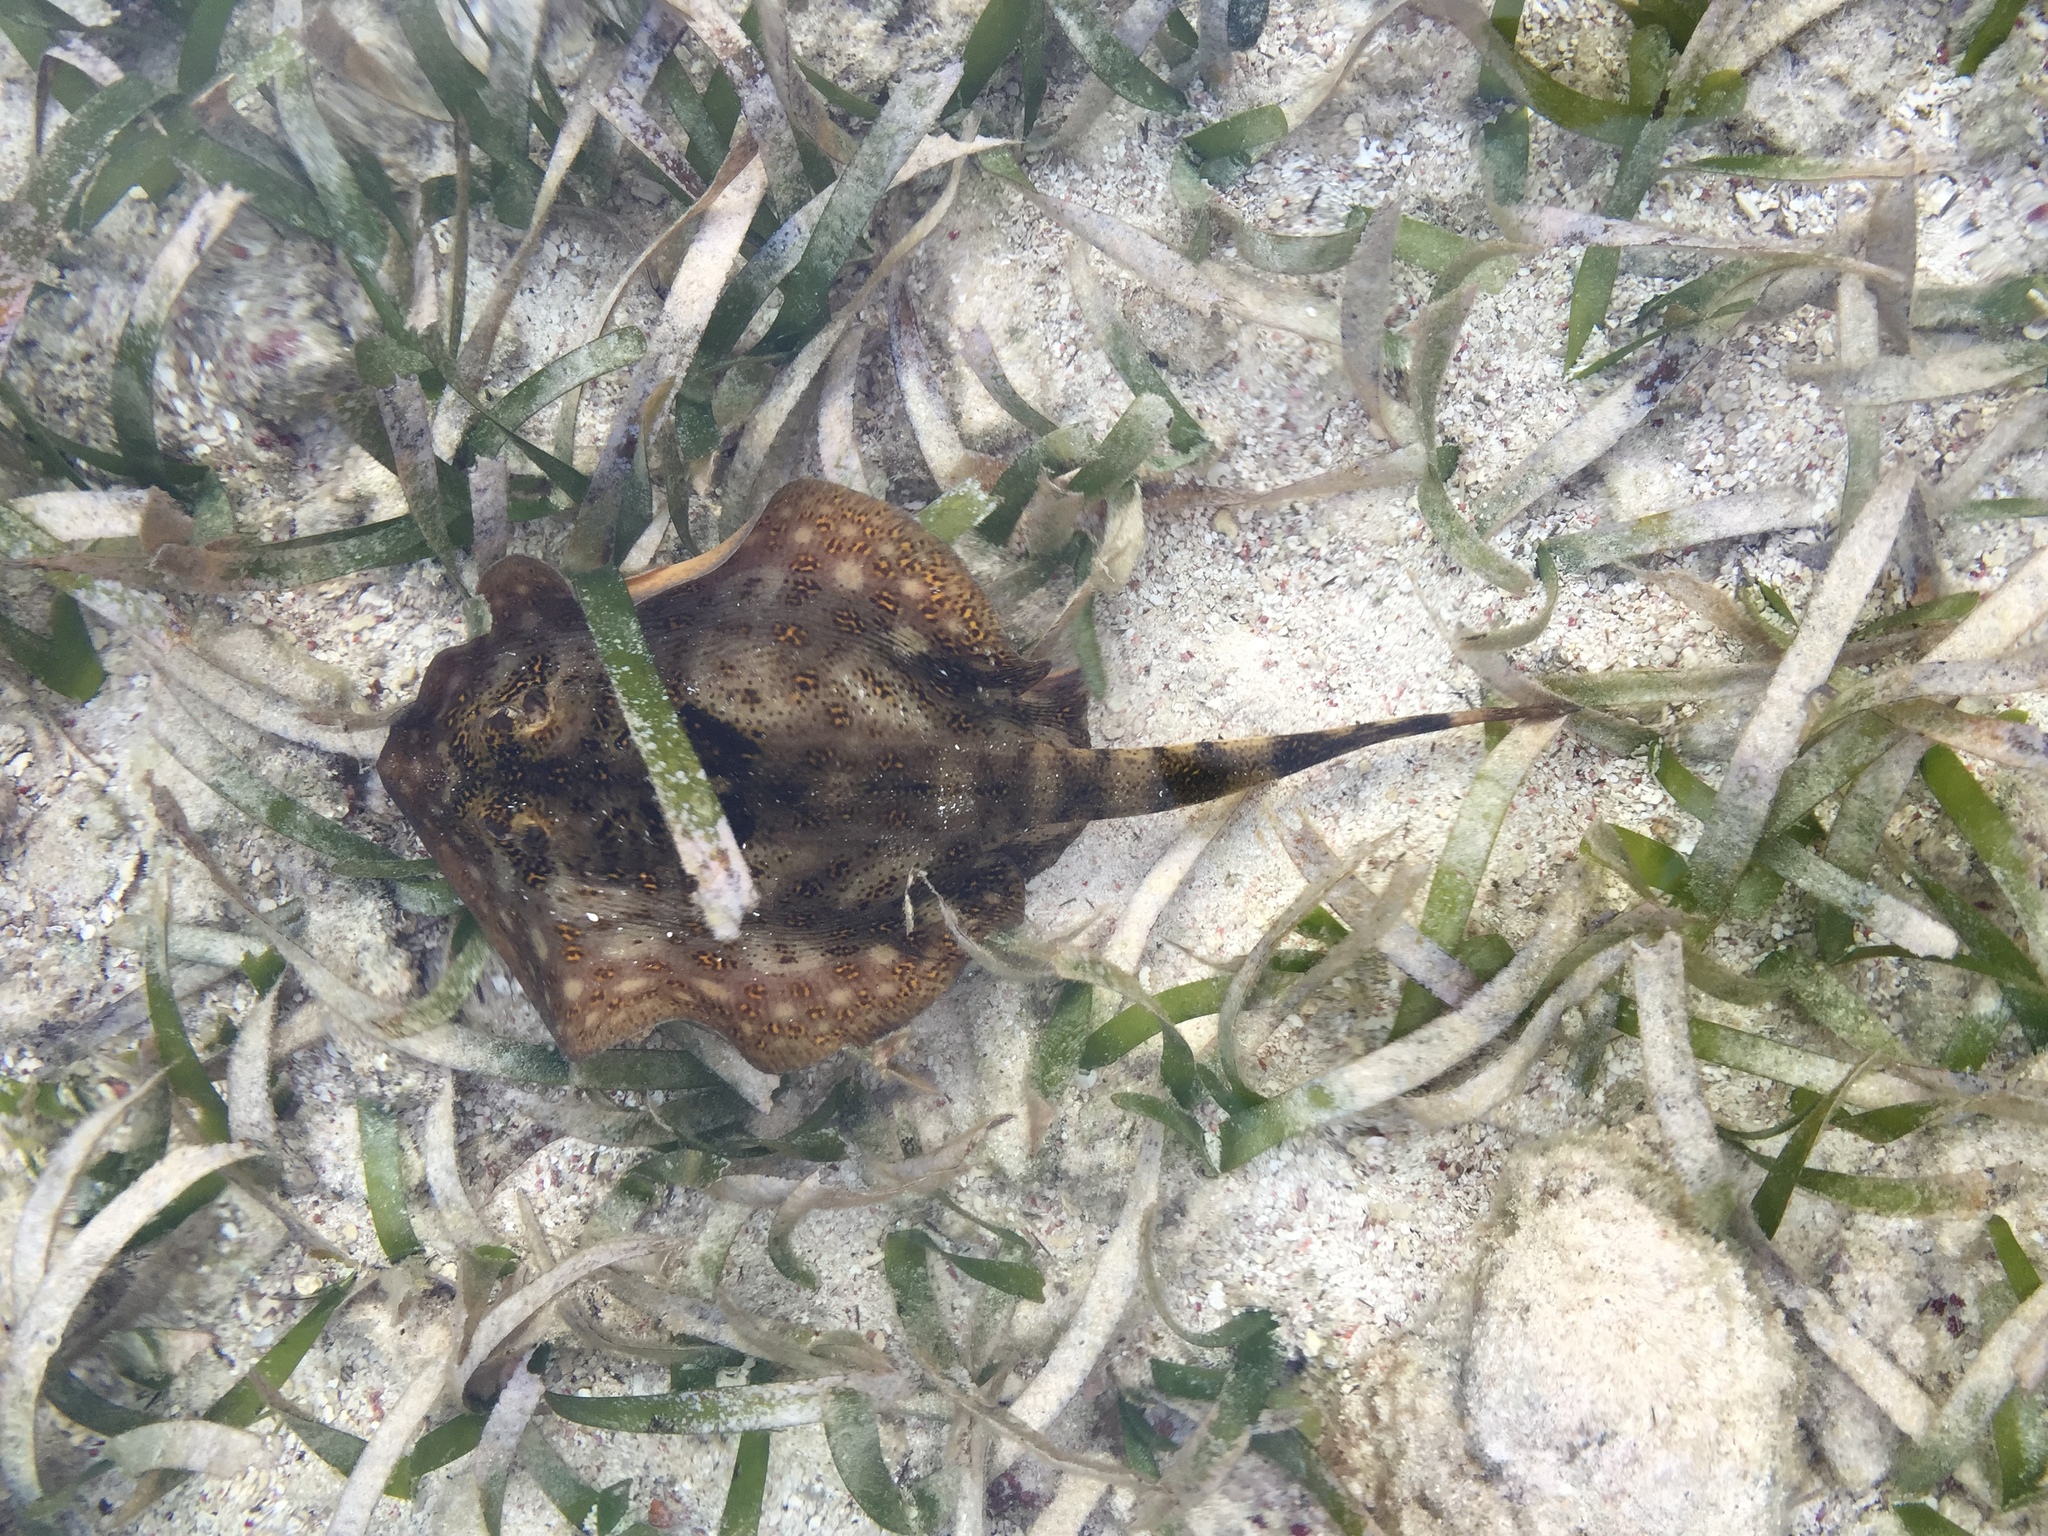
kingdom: Animalia
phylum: Chordata
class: Elasmobranchii
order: Myliobatiformes
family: Urotrygonidae
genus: Urobatis
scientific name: Urobatis jamaicensis
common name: Yellow stingray
